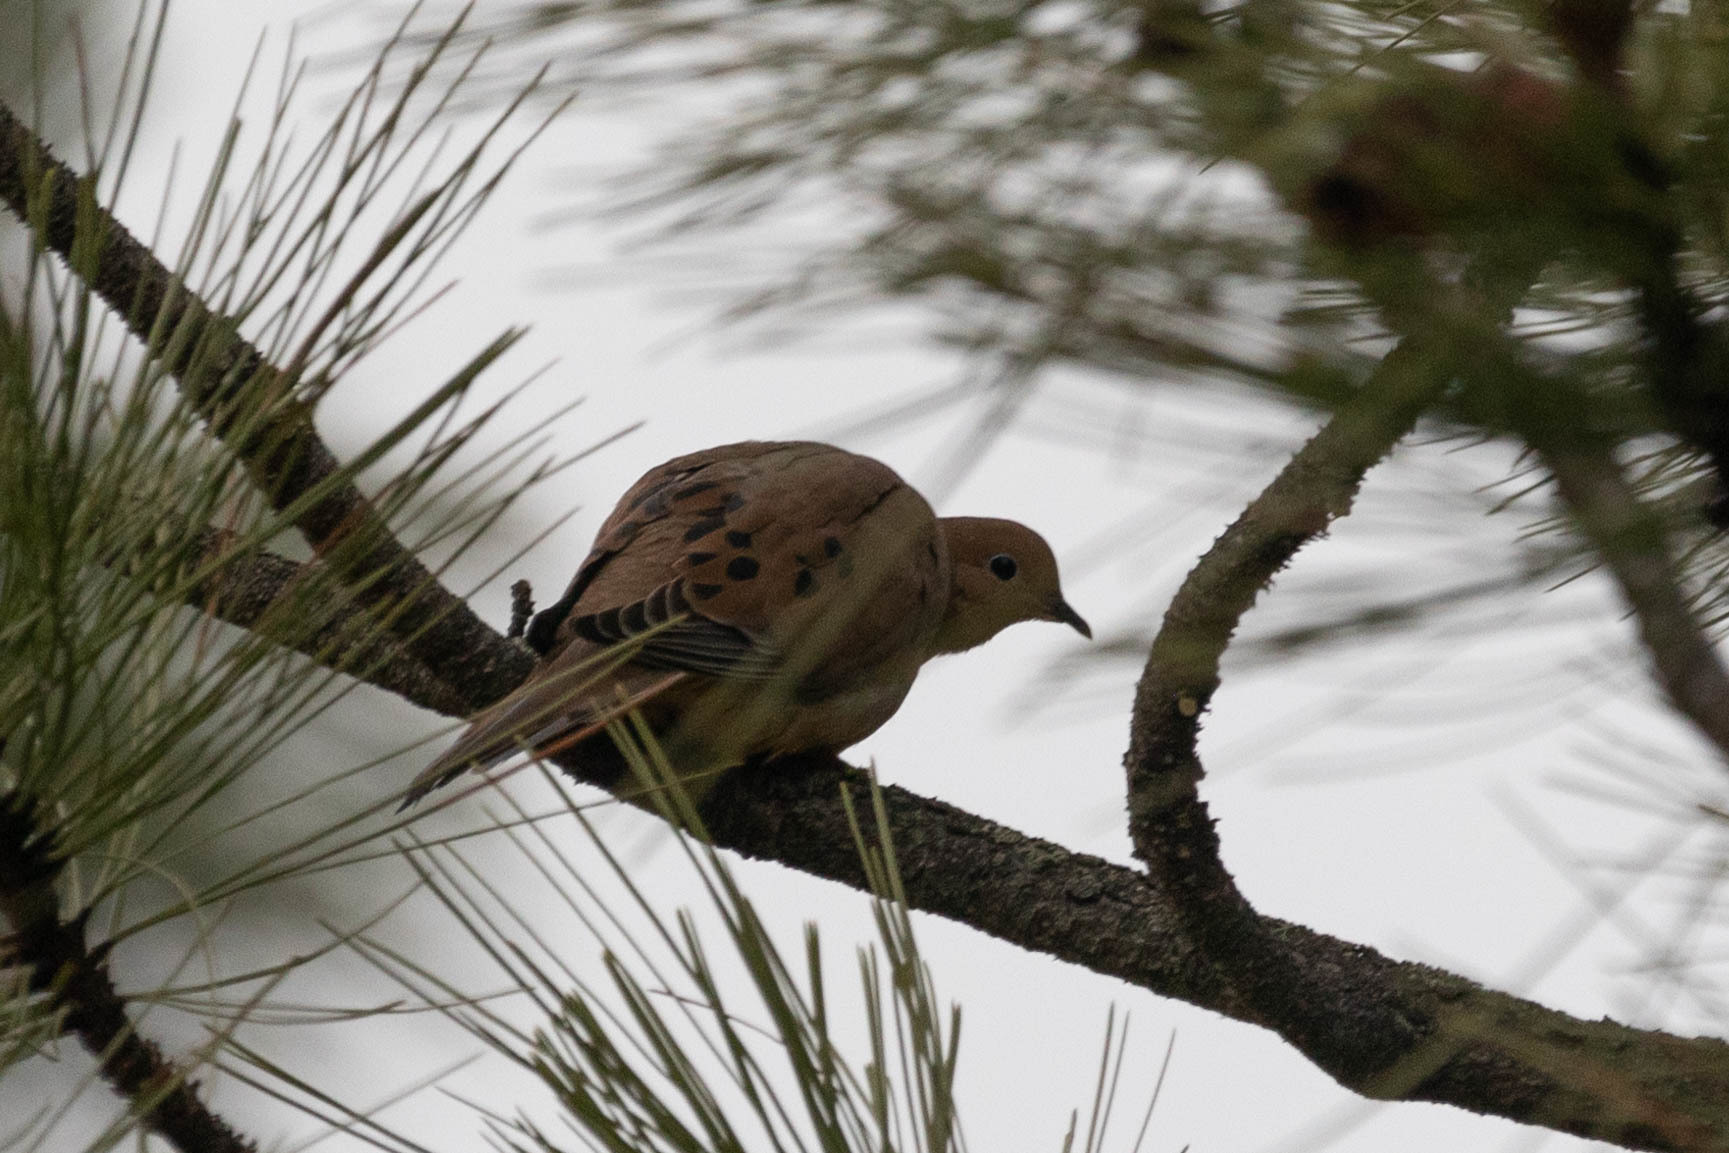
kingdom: Animalia
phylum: Chordata
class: Aves
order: Columbiformes
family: Columbidae
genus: Zenaida
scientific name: Zenaida macroura
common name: Mourning dove
